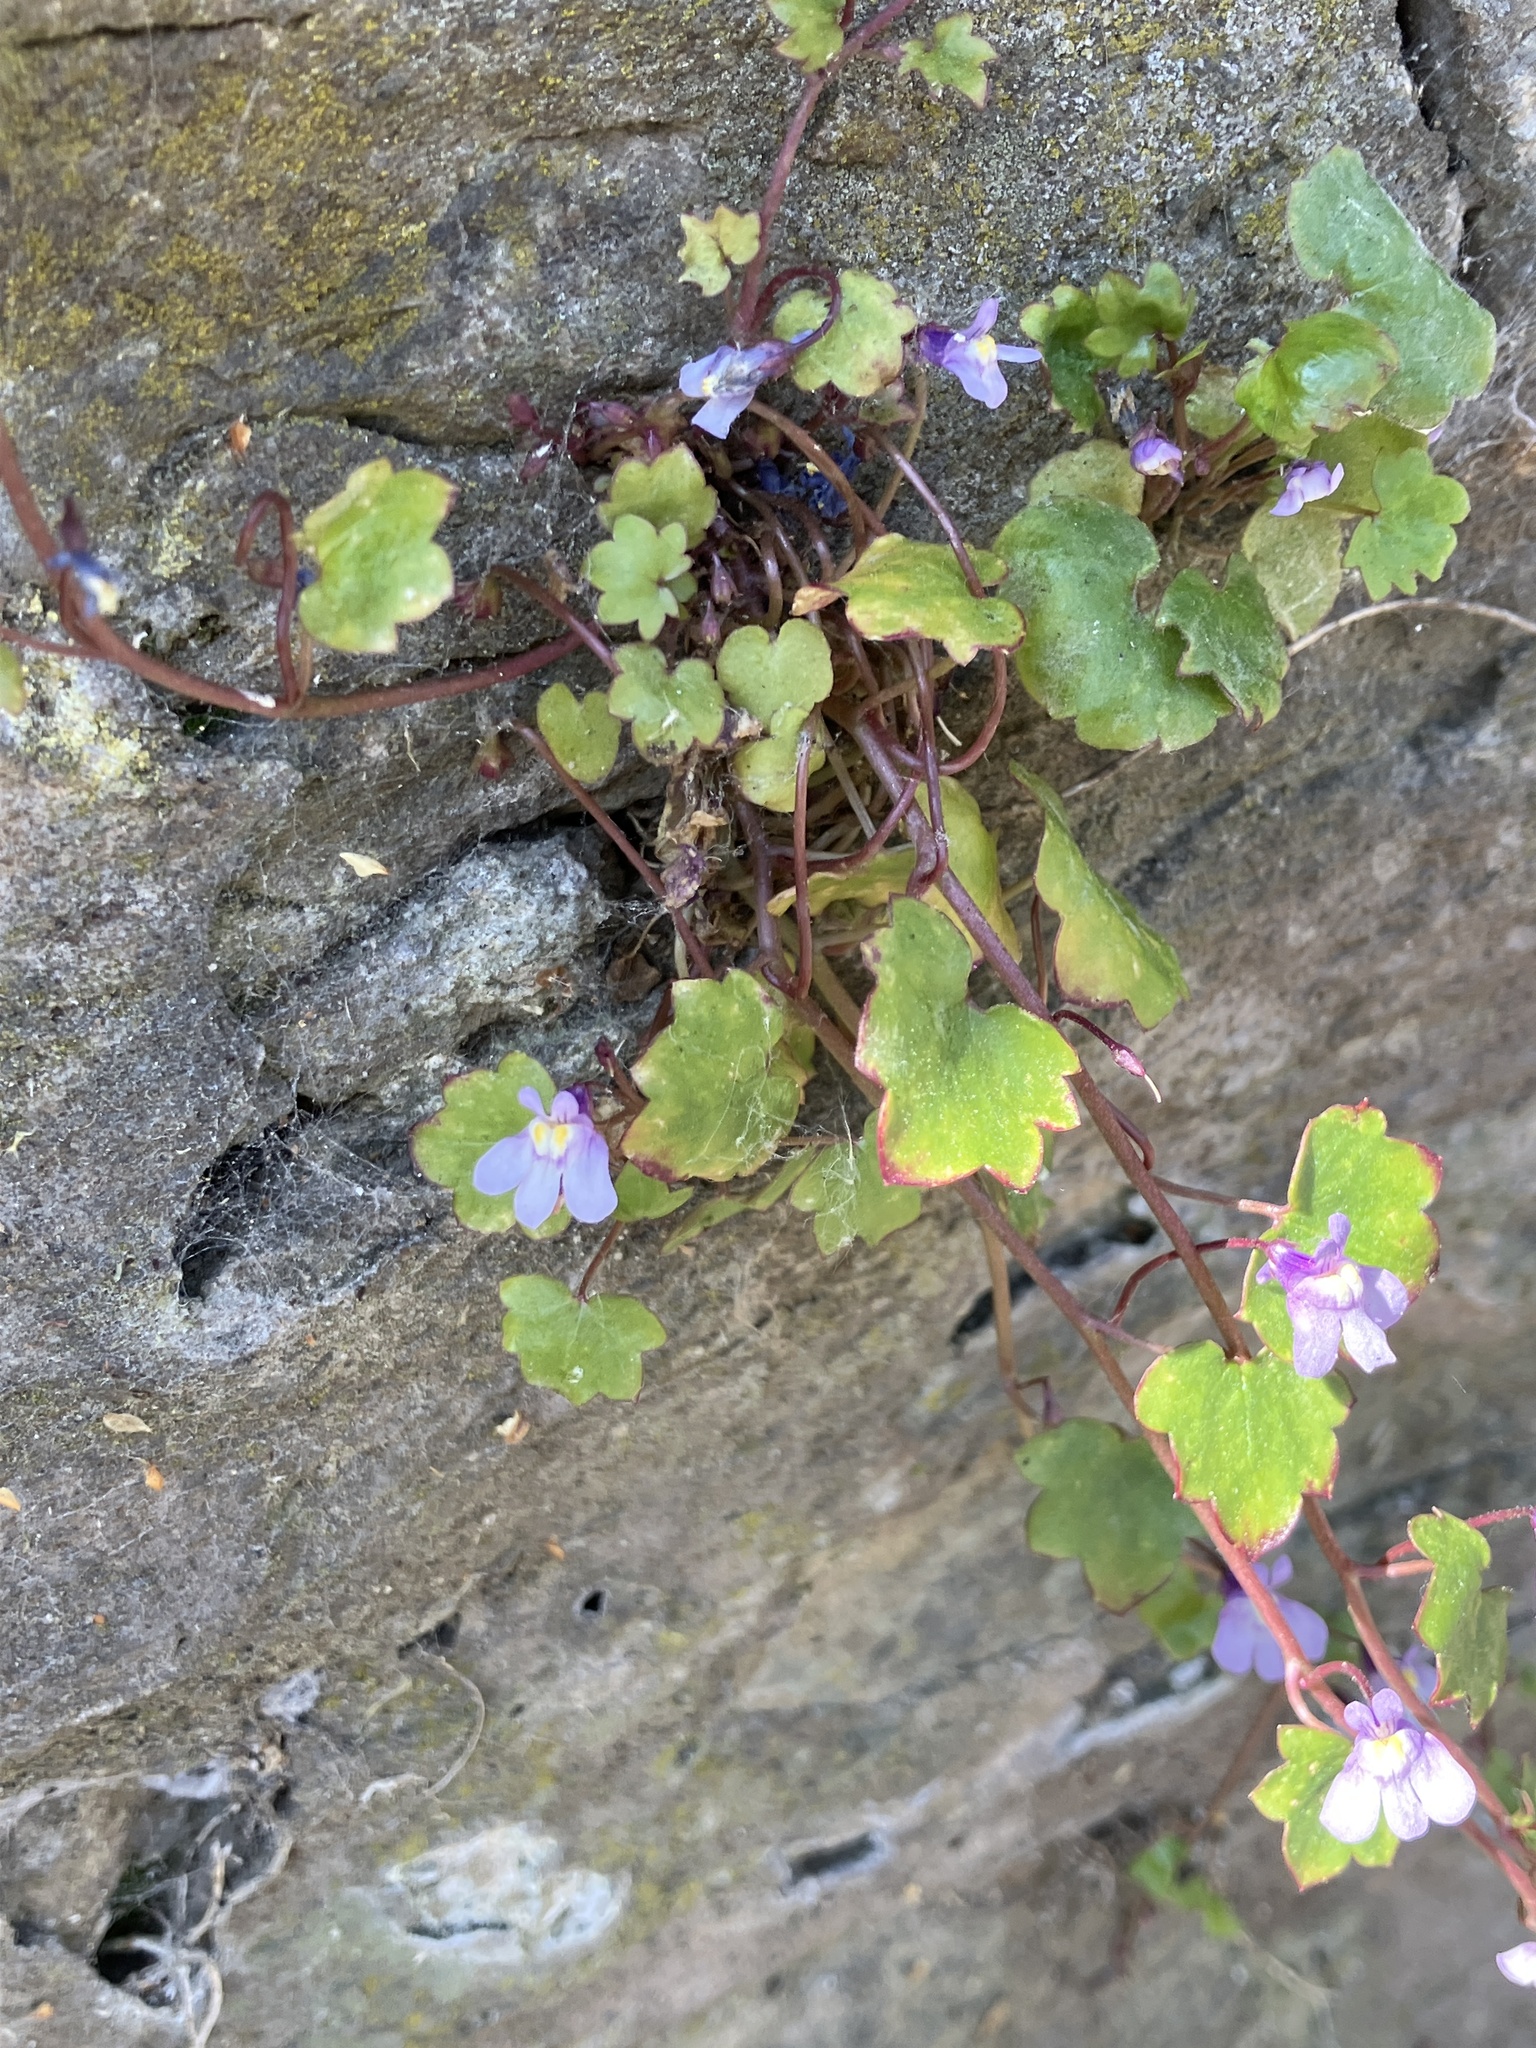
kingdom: Plantae
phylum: Tracheophyta
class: Magnoliopsida
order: Lamiales
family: Plantaginaceae
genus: Cymbalaria
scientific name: Cymbalaria muralis
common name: Ivy-leaved toadflax
